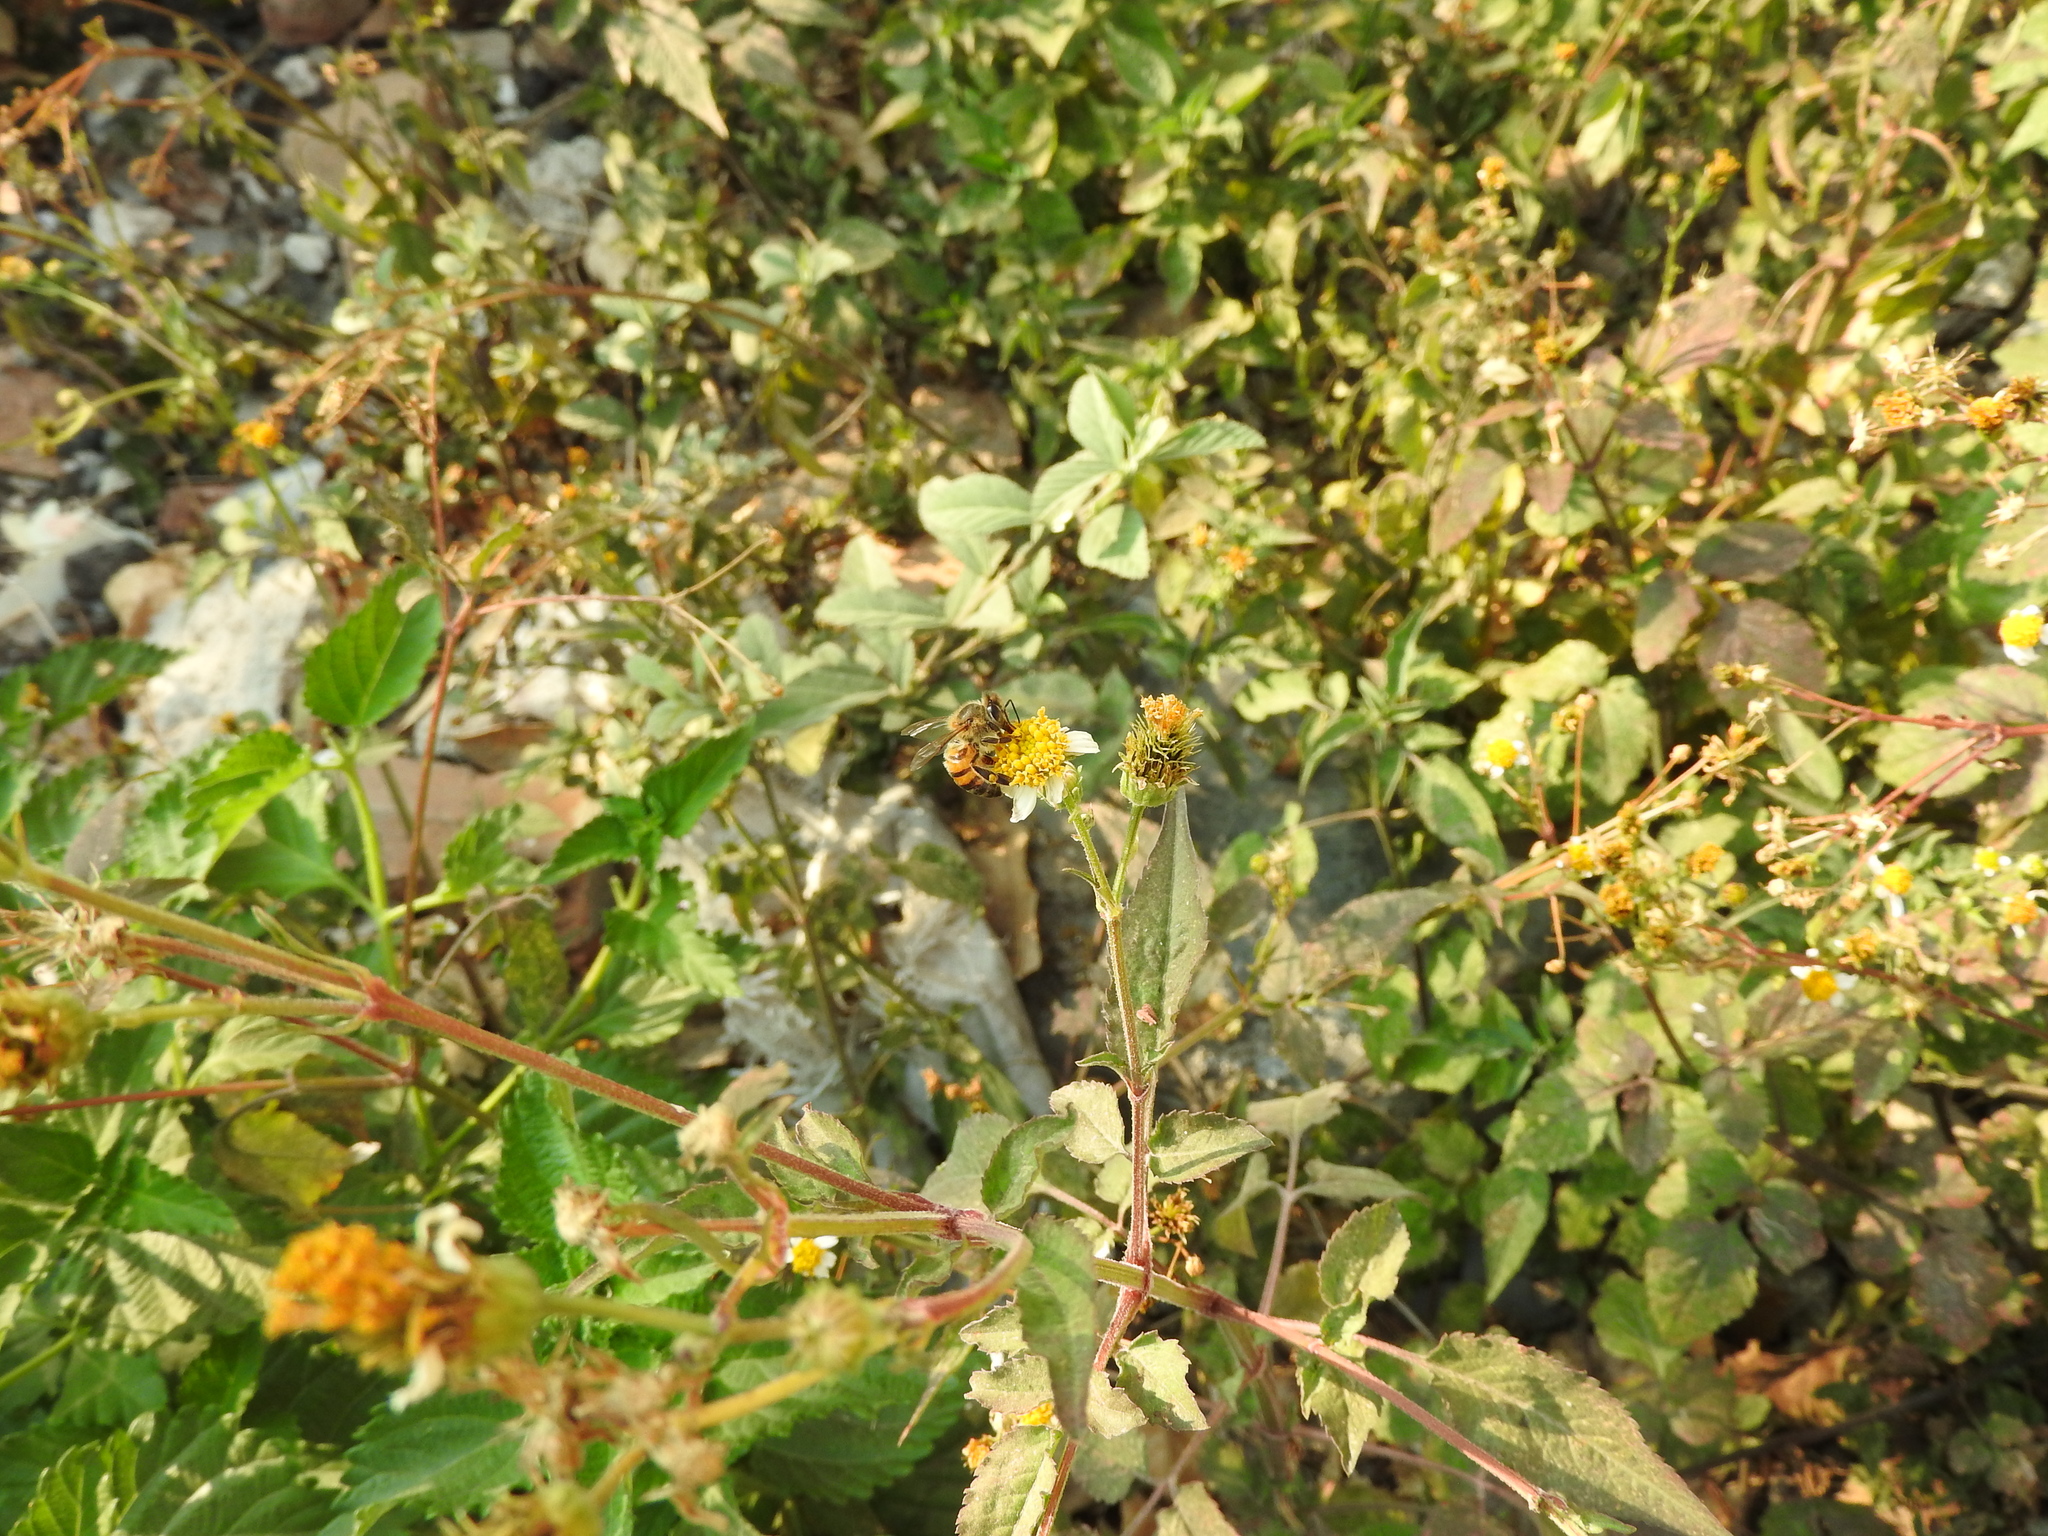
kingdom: Animalia
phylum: Arthropoda
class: Insecta
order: Hymenoptera
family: Apidae
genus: Apis
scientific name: Apis mellifera
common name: Honey bee
